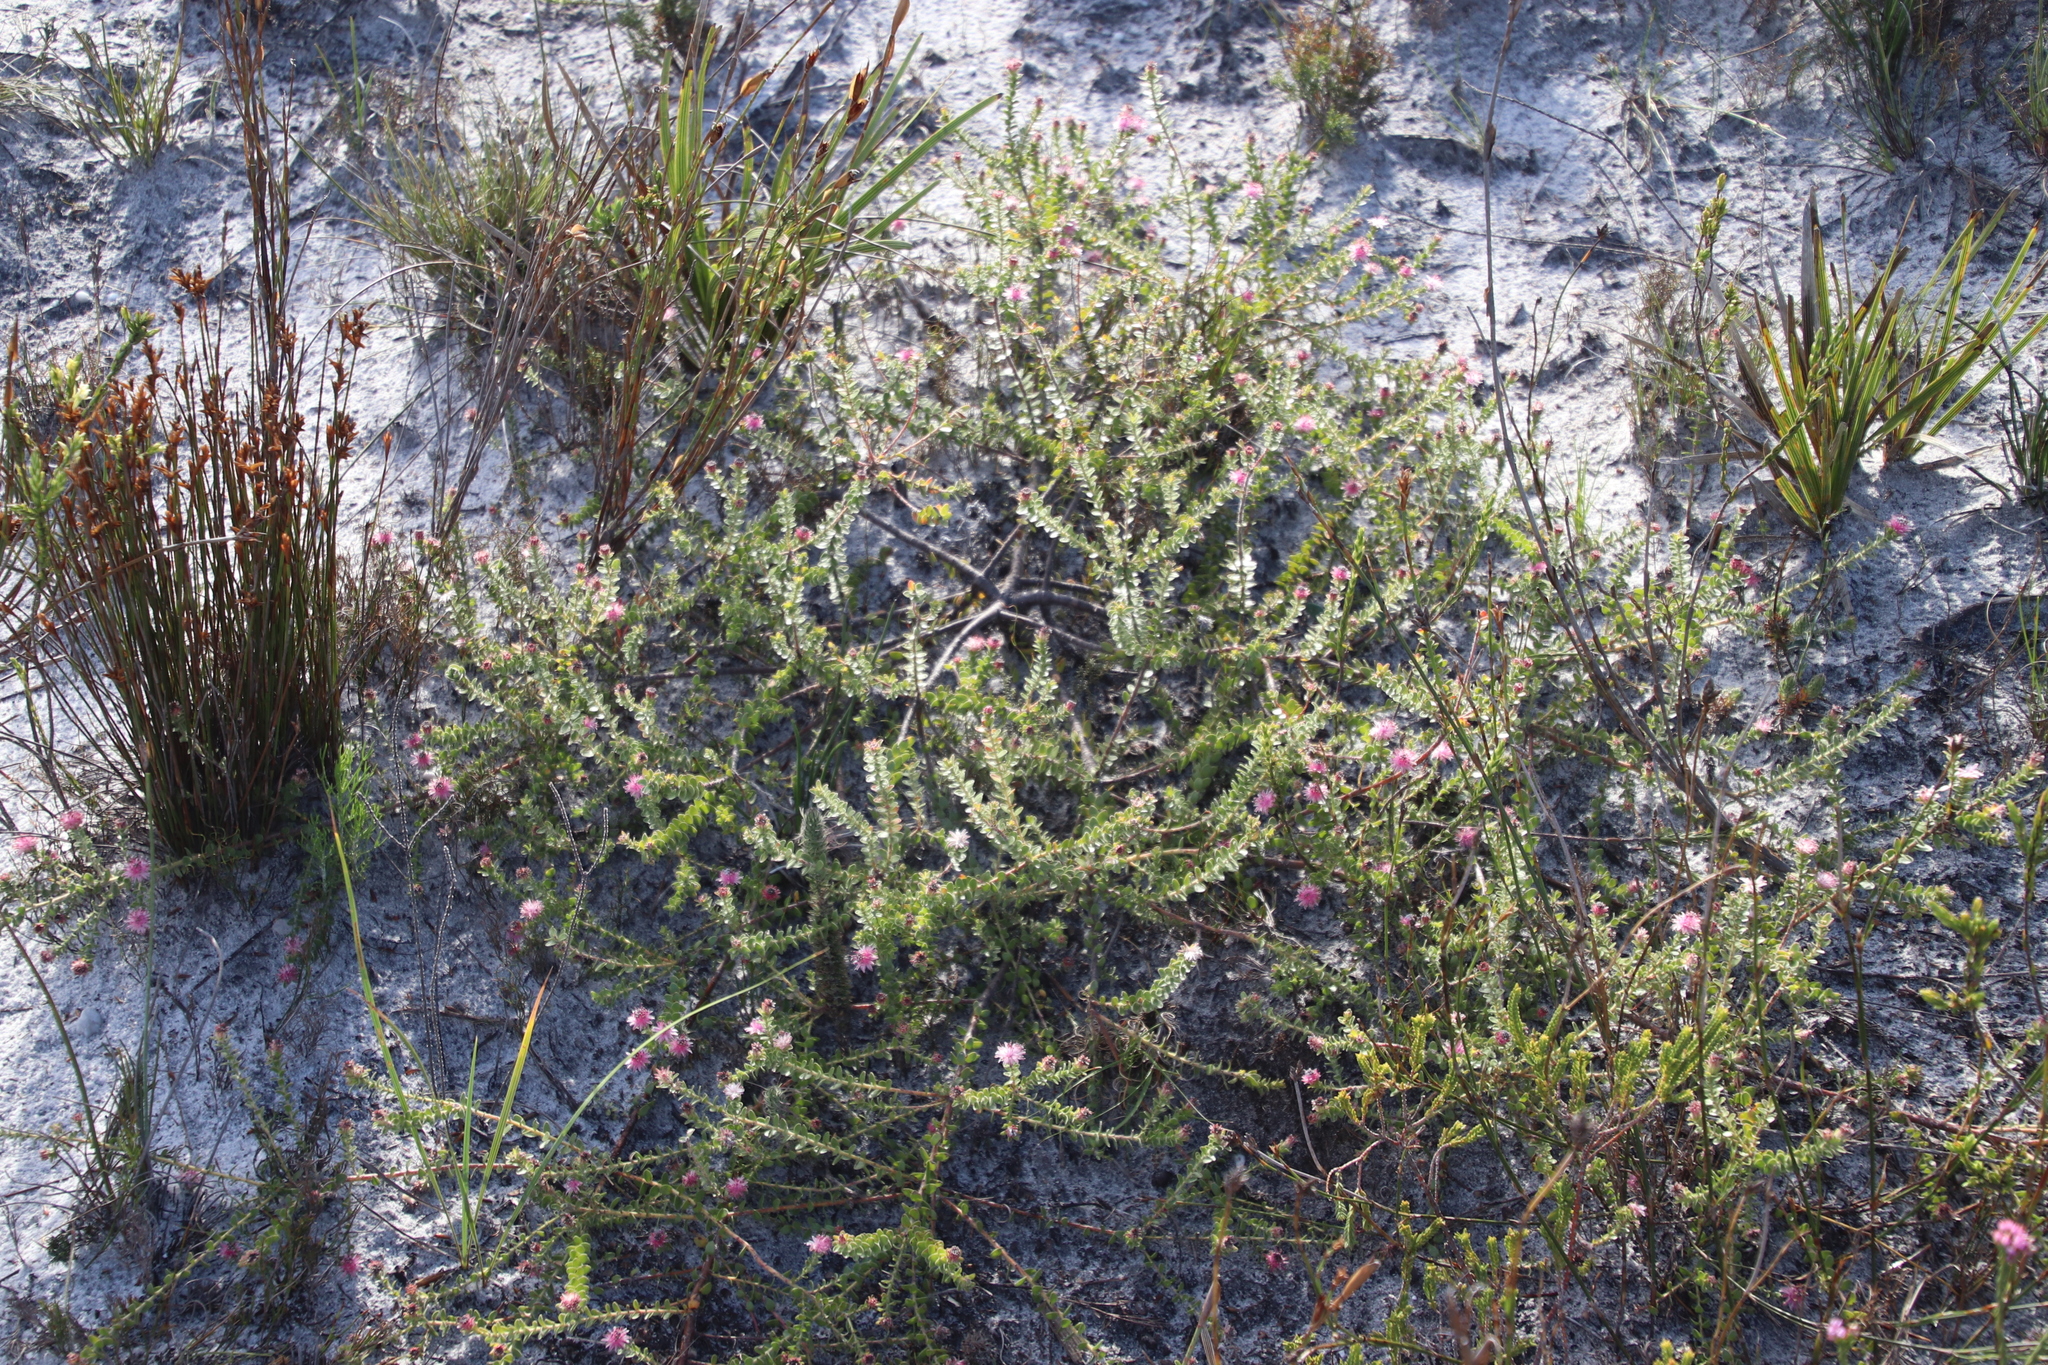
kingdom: Plantae
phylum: Tracheophyta
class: Magnoliopsida
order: Proteales
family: Proteaceae
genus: Diastella
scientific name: Diastella divaricata
